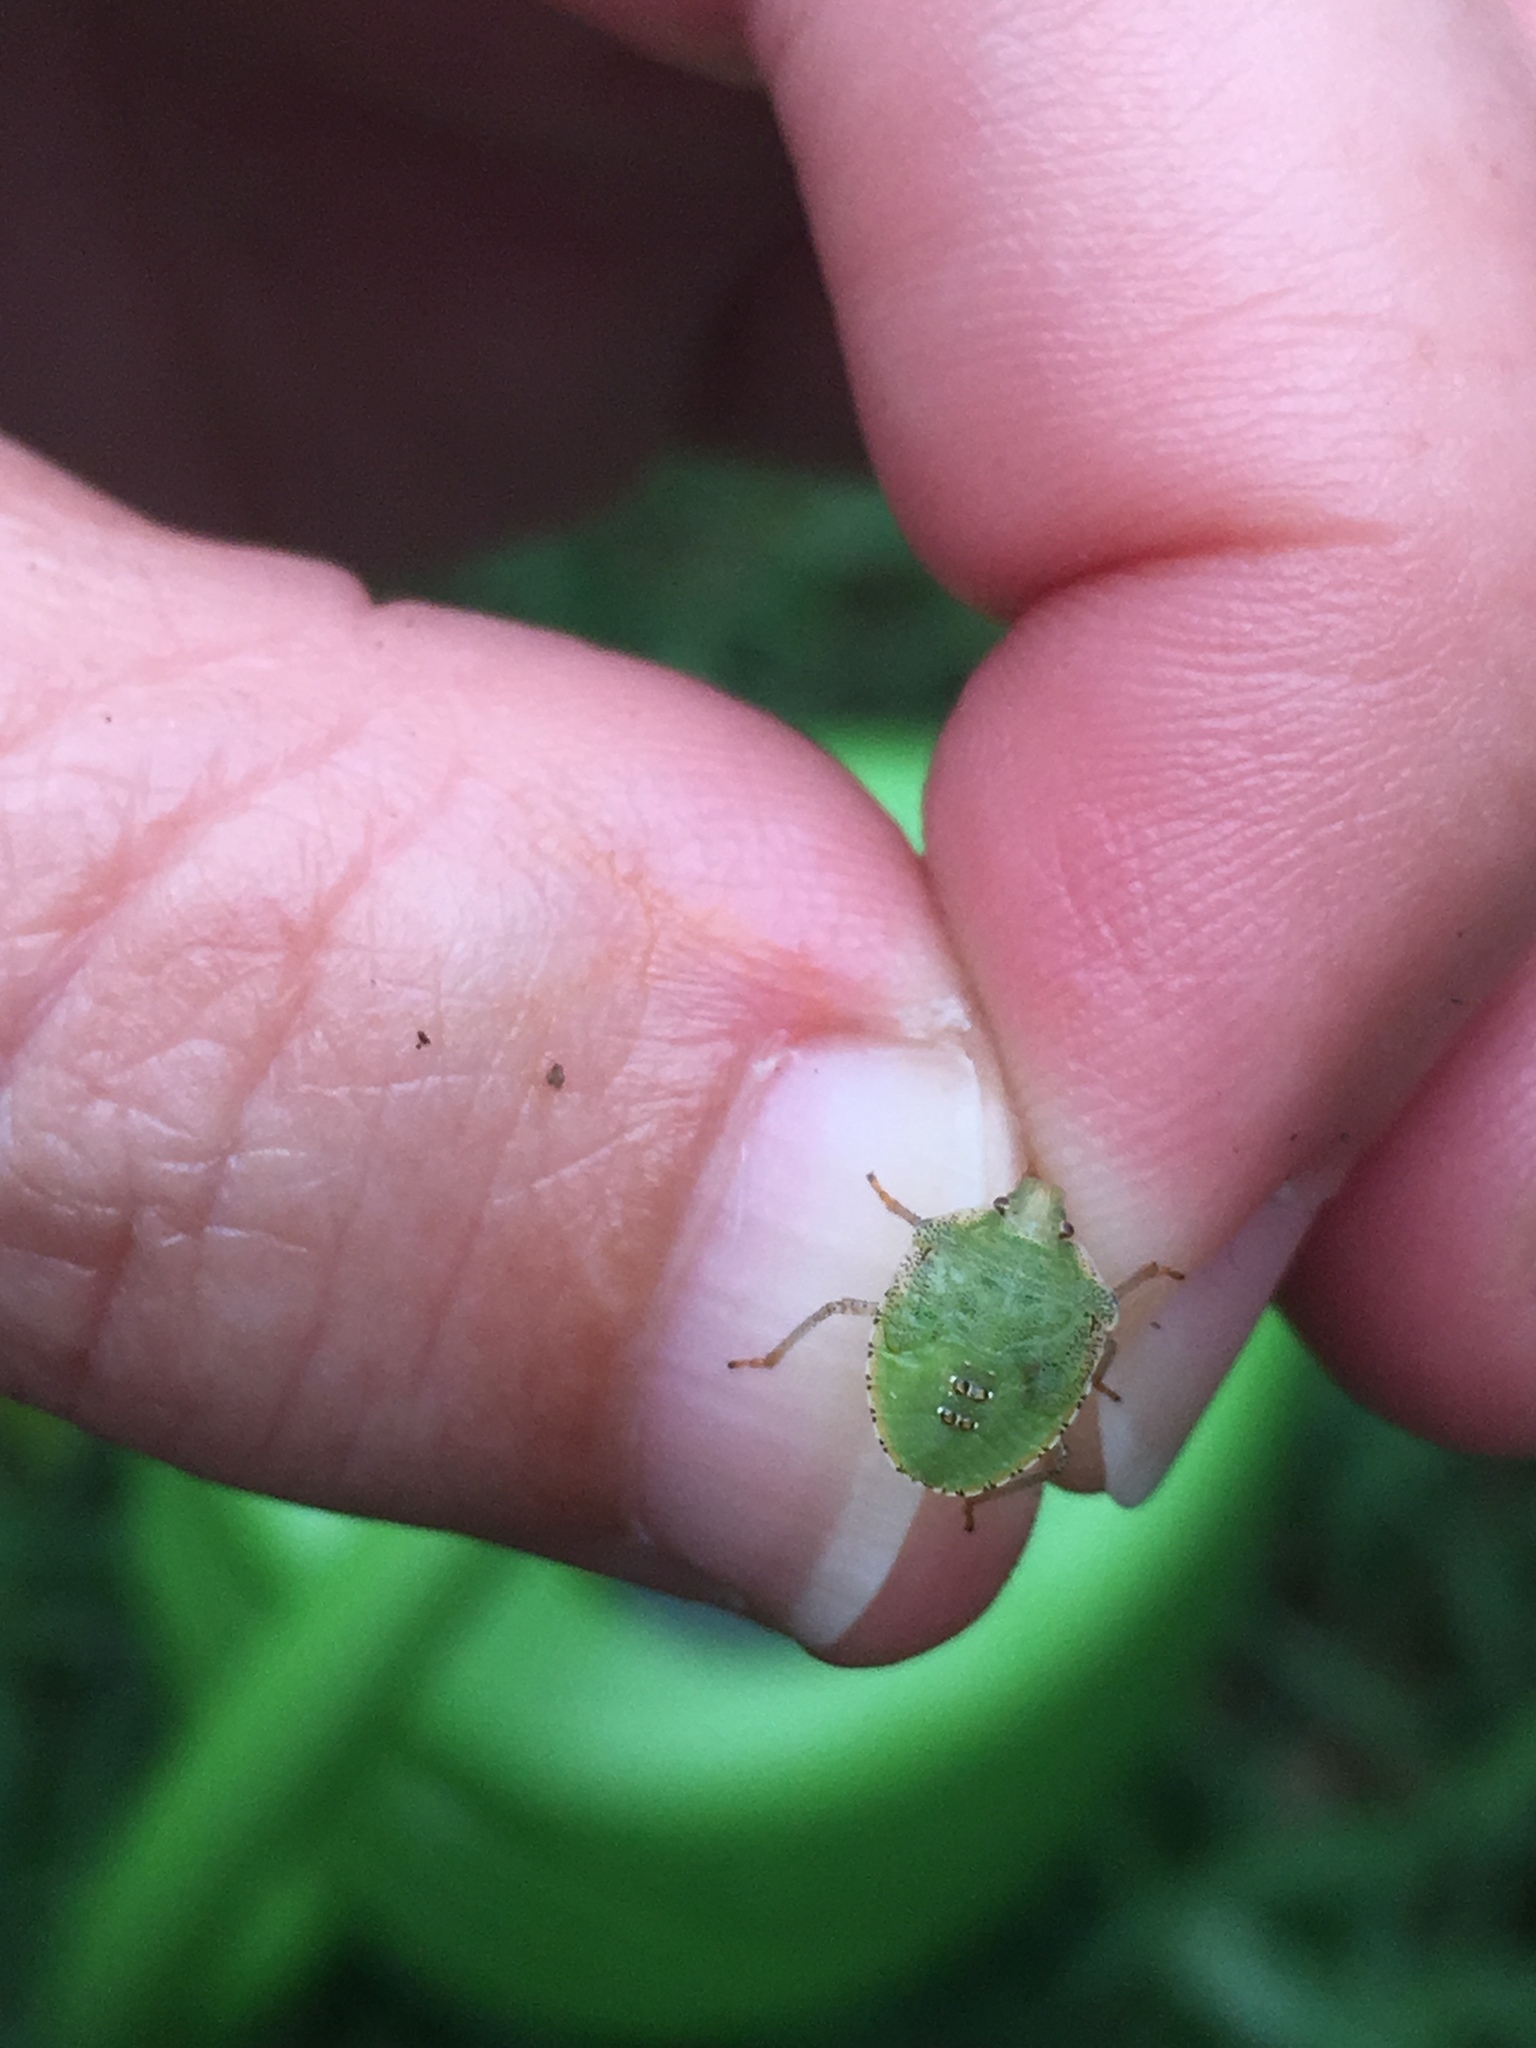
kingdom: Animalia
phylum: Arthropoda
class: Insecta
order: Hemiptera
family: Pentatomidae
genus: Euschistus
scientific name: Euschistus servus
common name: Brown stink bug
